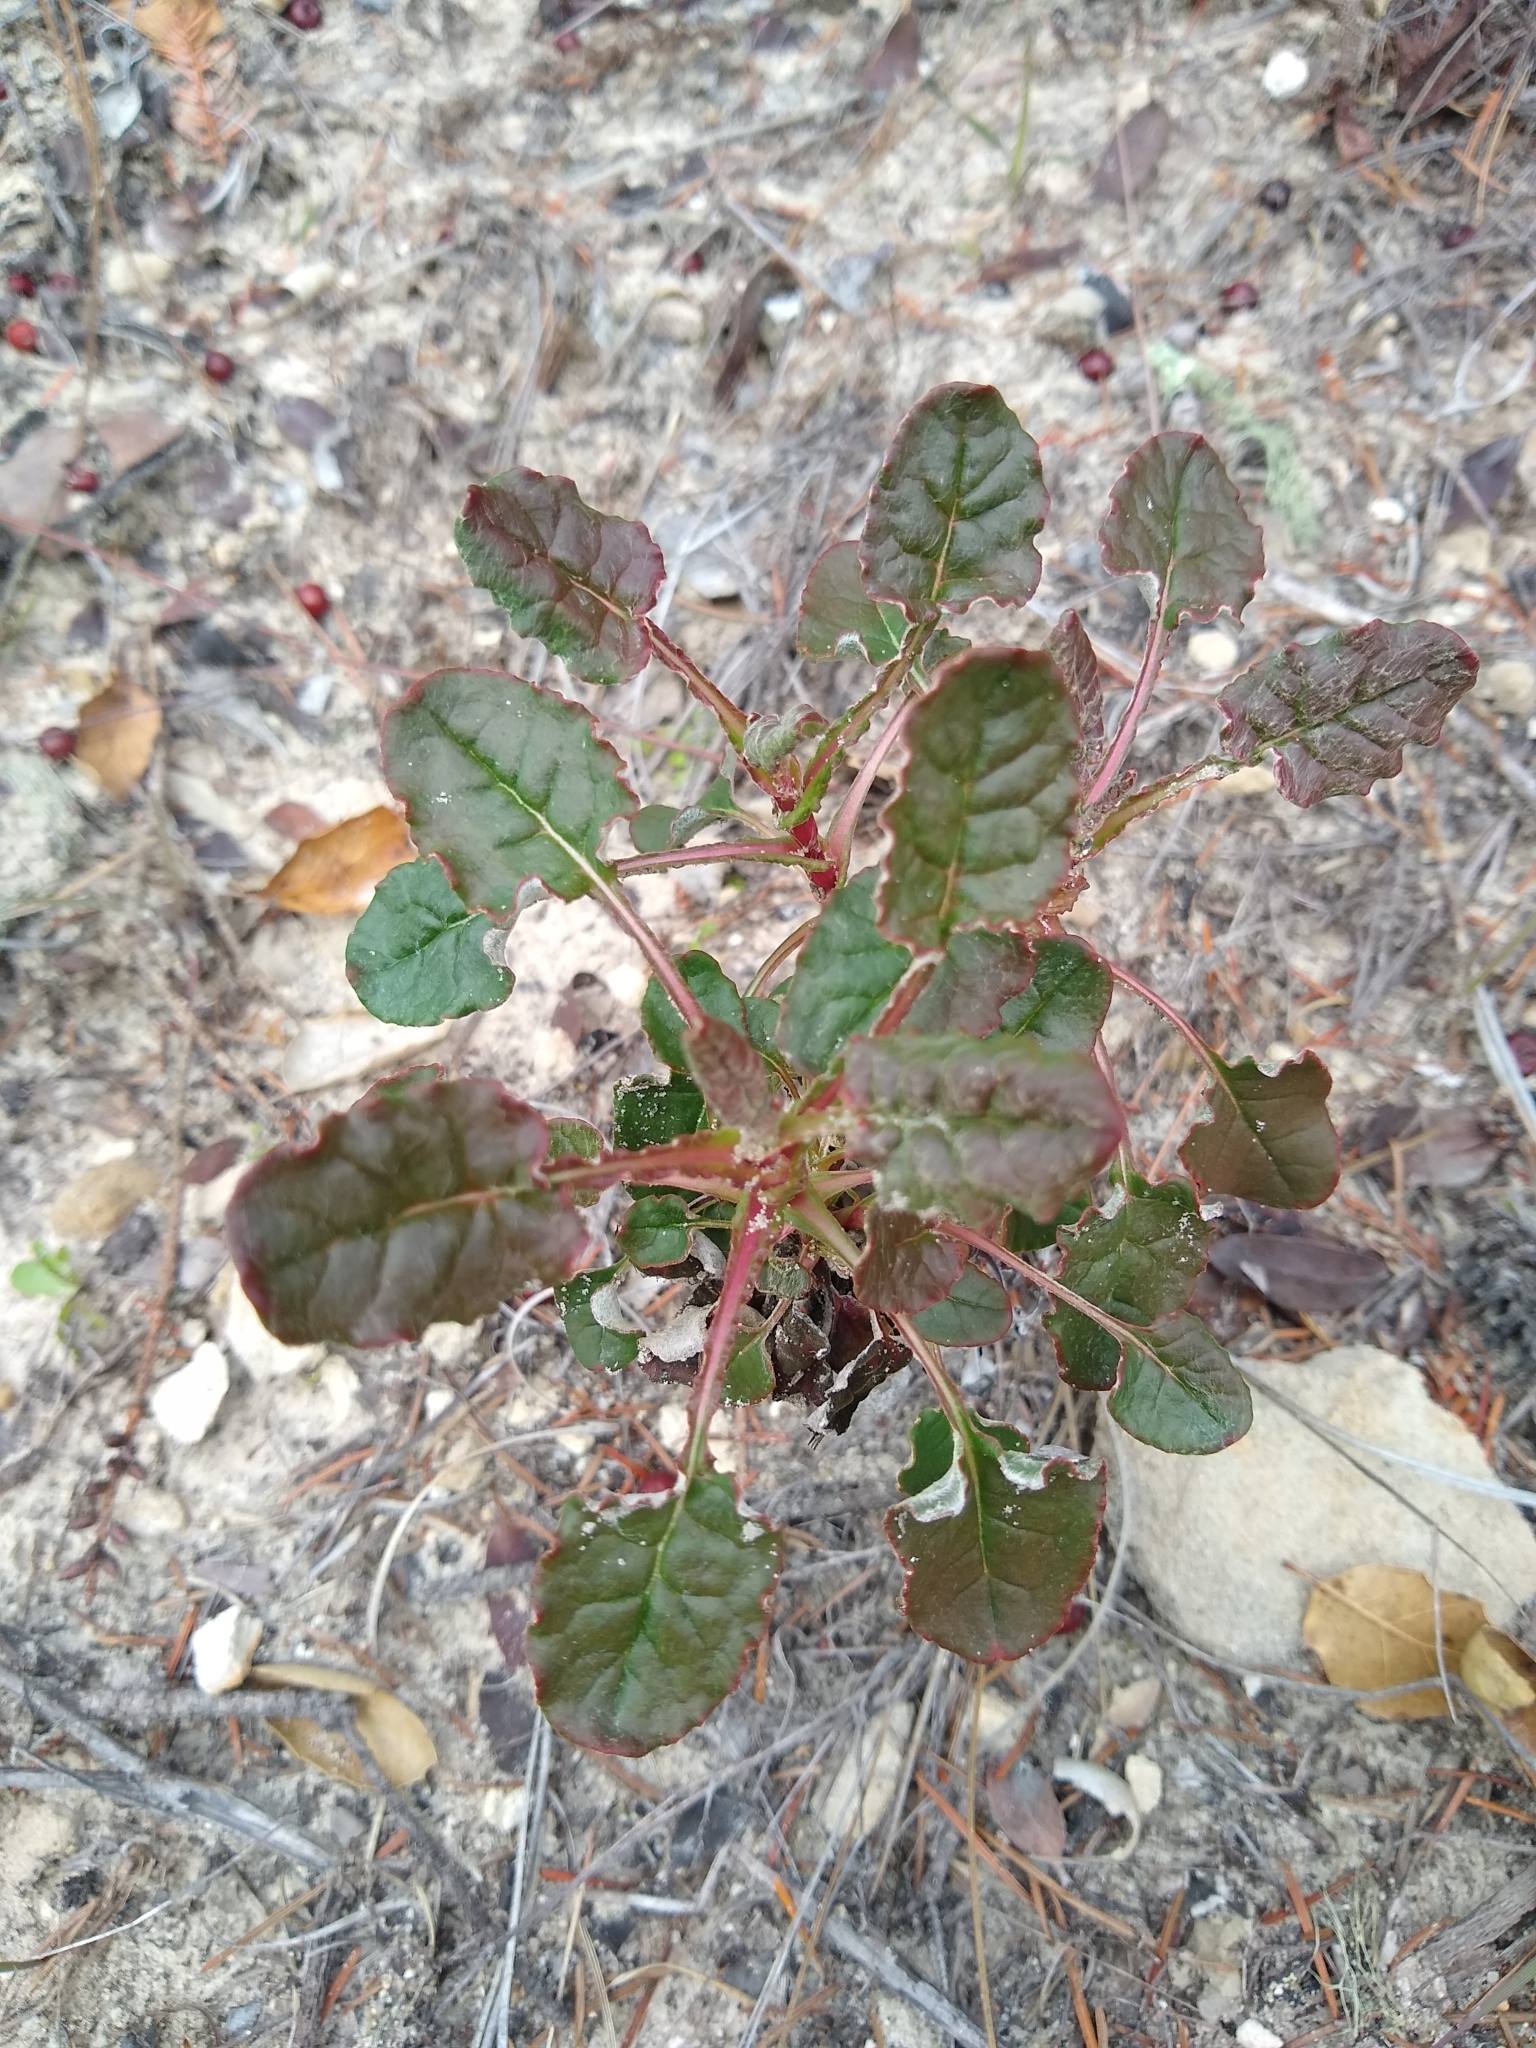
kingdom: Plantae
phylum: Tracheophyta
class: Magnoliopsida
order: Caryophyllales
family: Polygonaceae
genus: Eriogonum
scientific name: Eriogonum nudum
